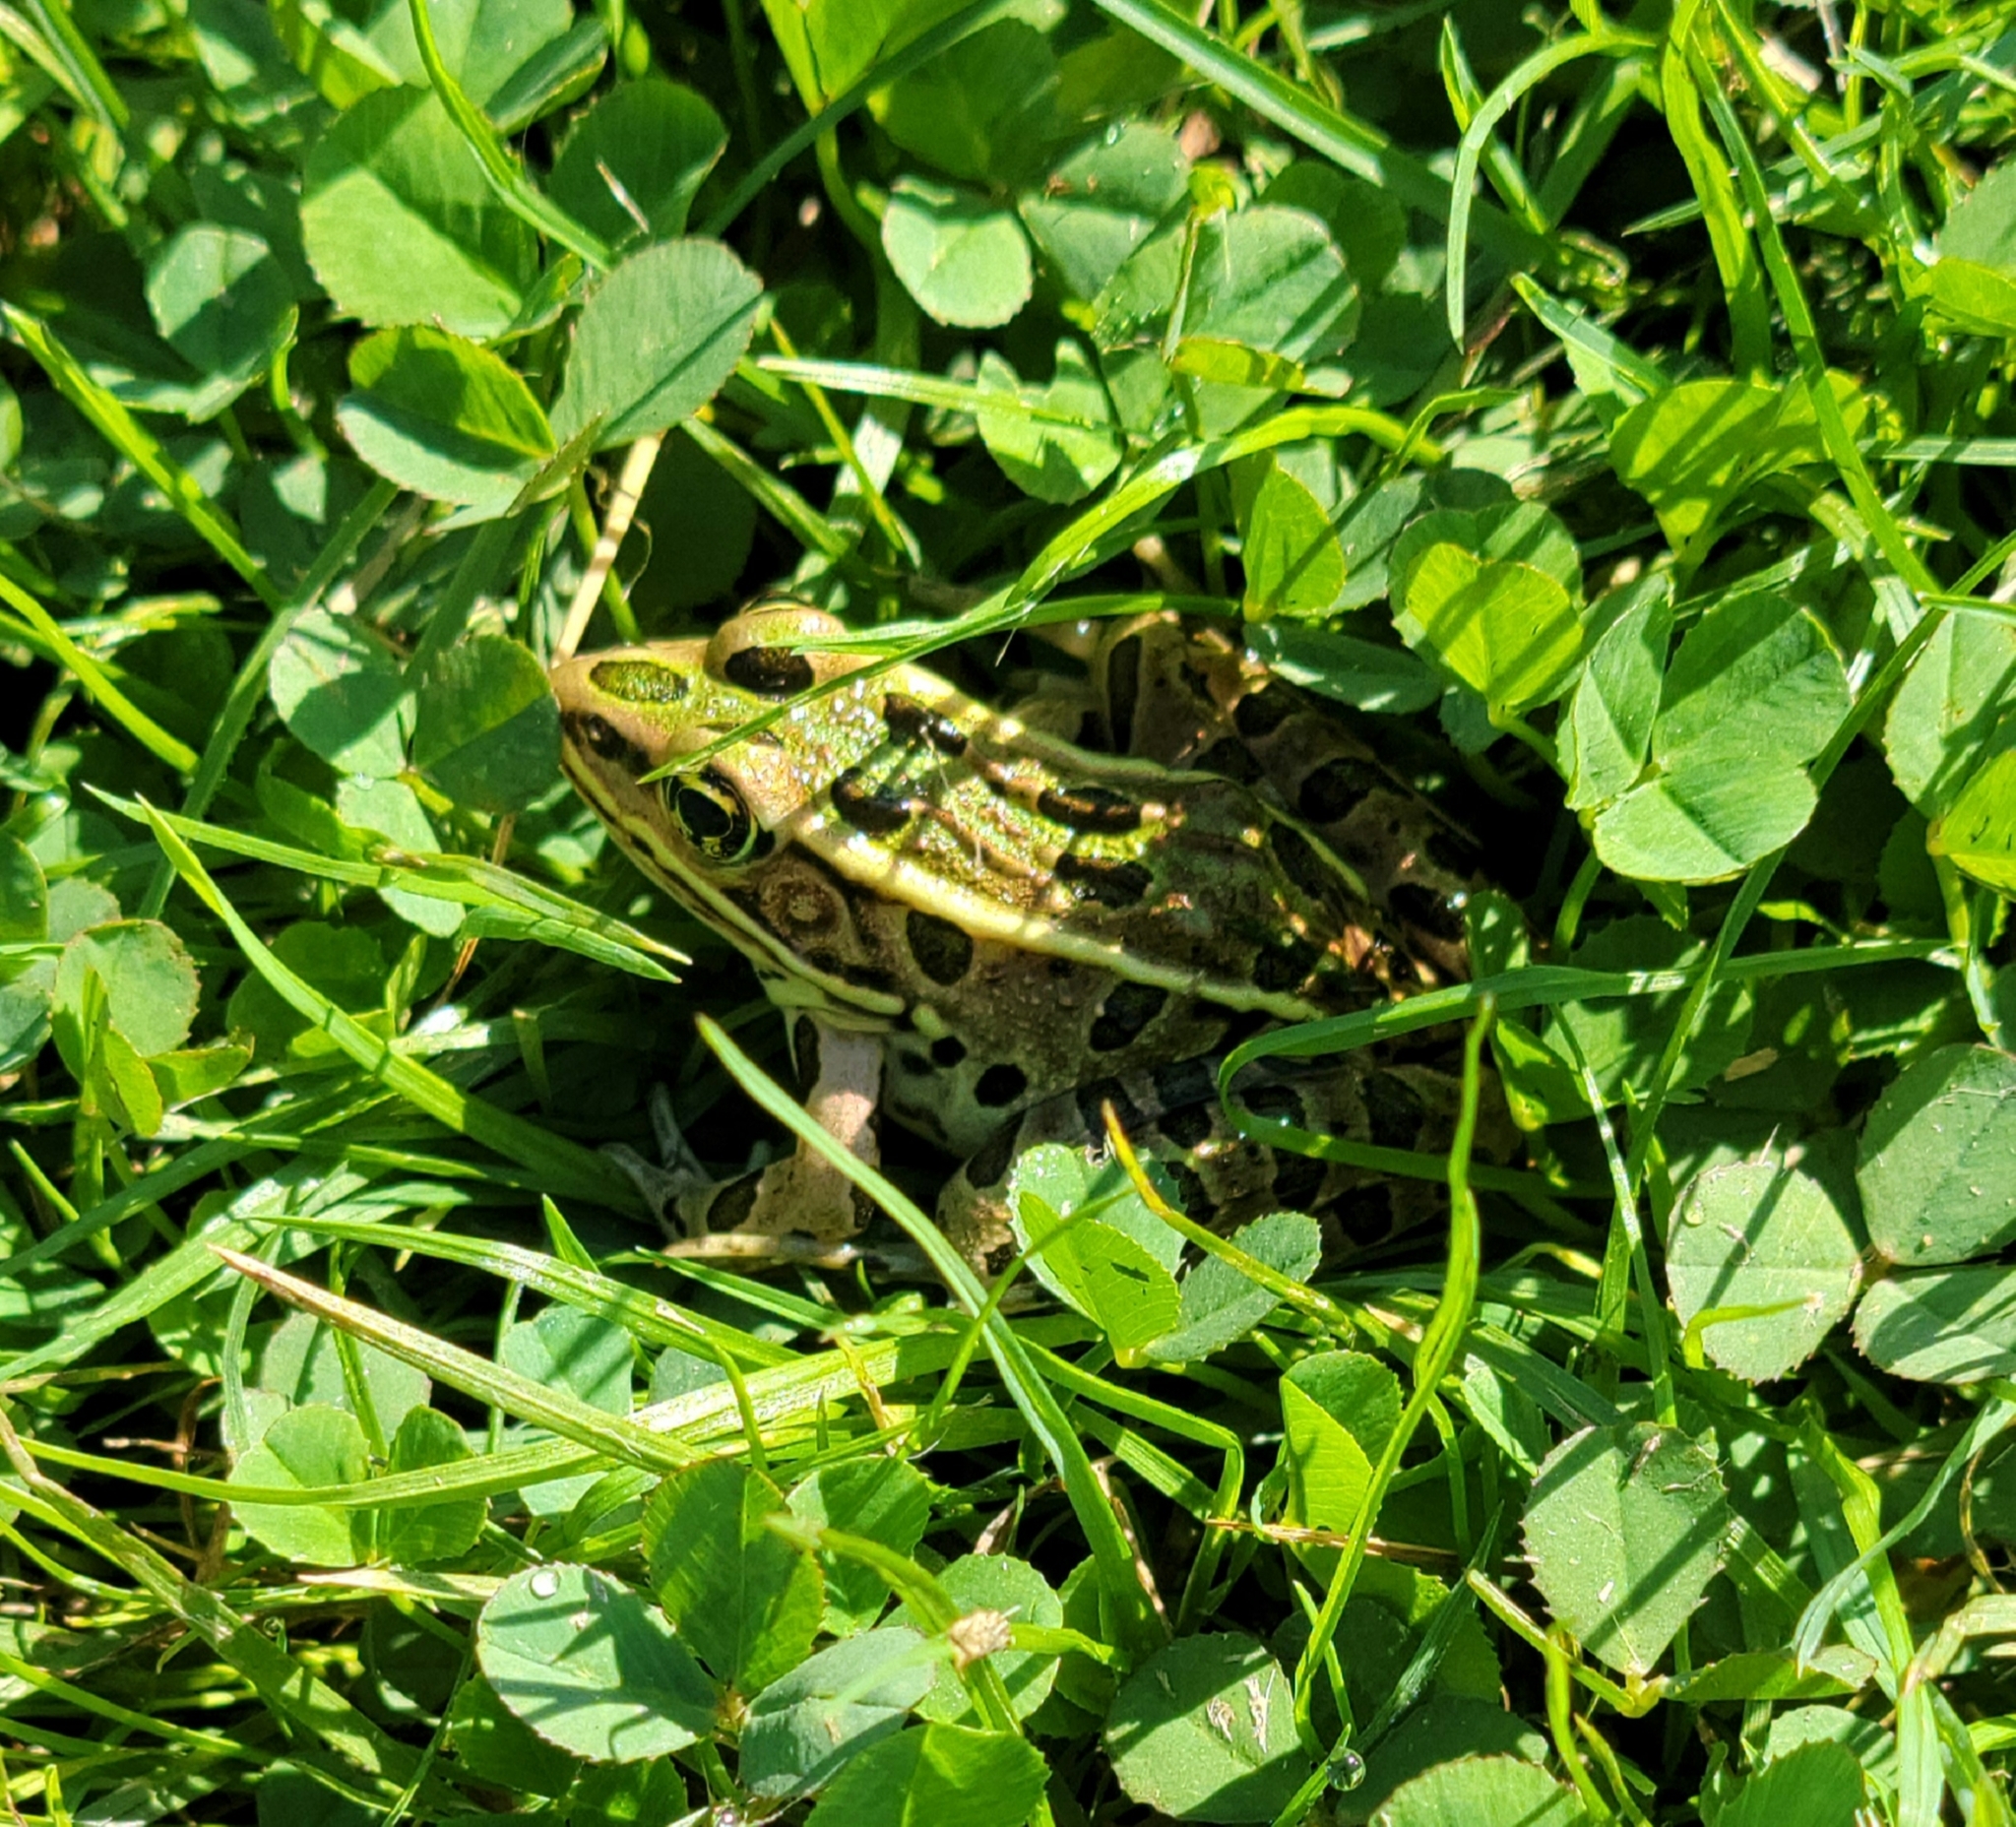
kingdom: Animalia
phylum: Chordata
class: Amphibia
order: Anura
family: Ranidae
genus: Lithobates
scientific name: Lithobates pipiens
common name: Northern leopard frog
